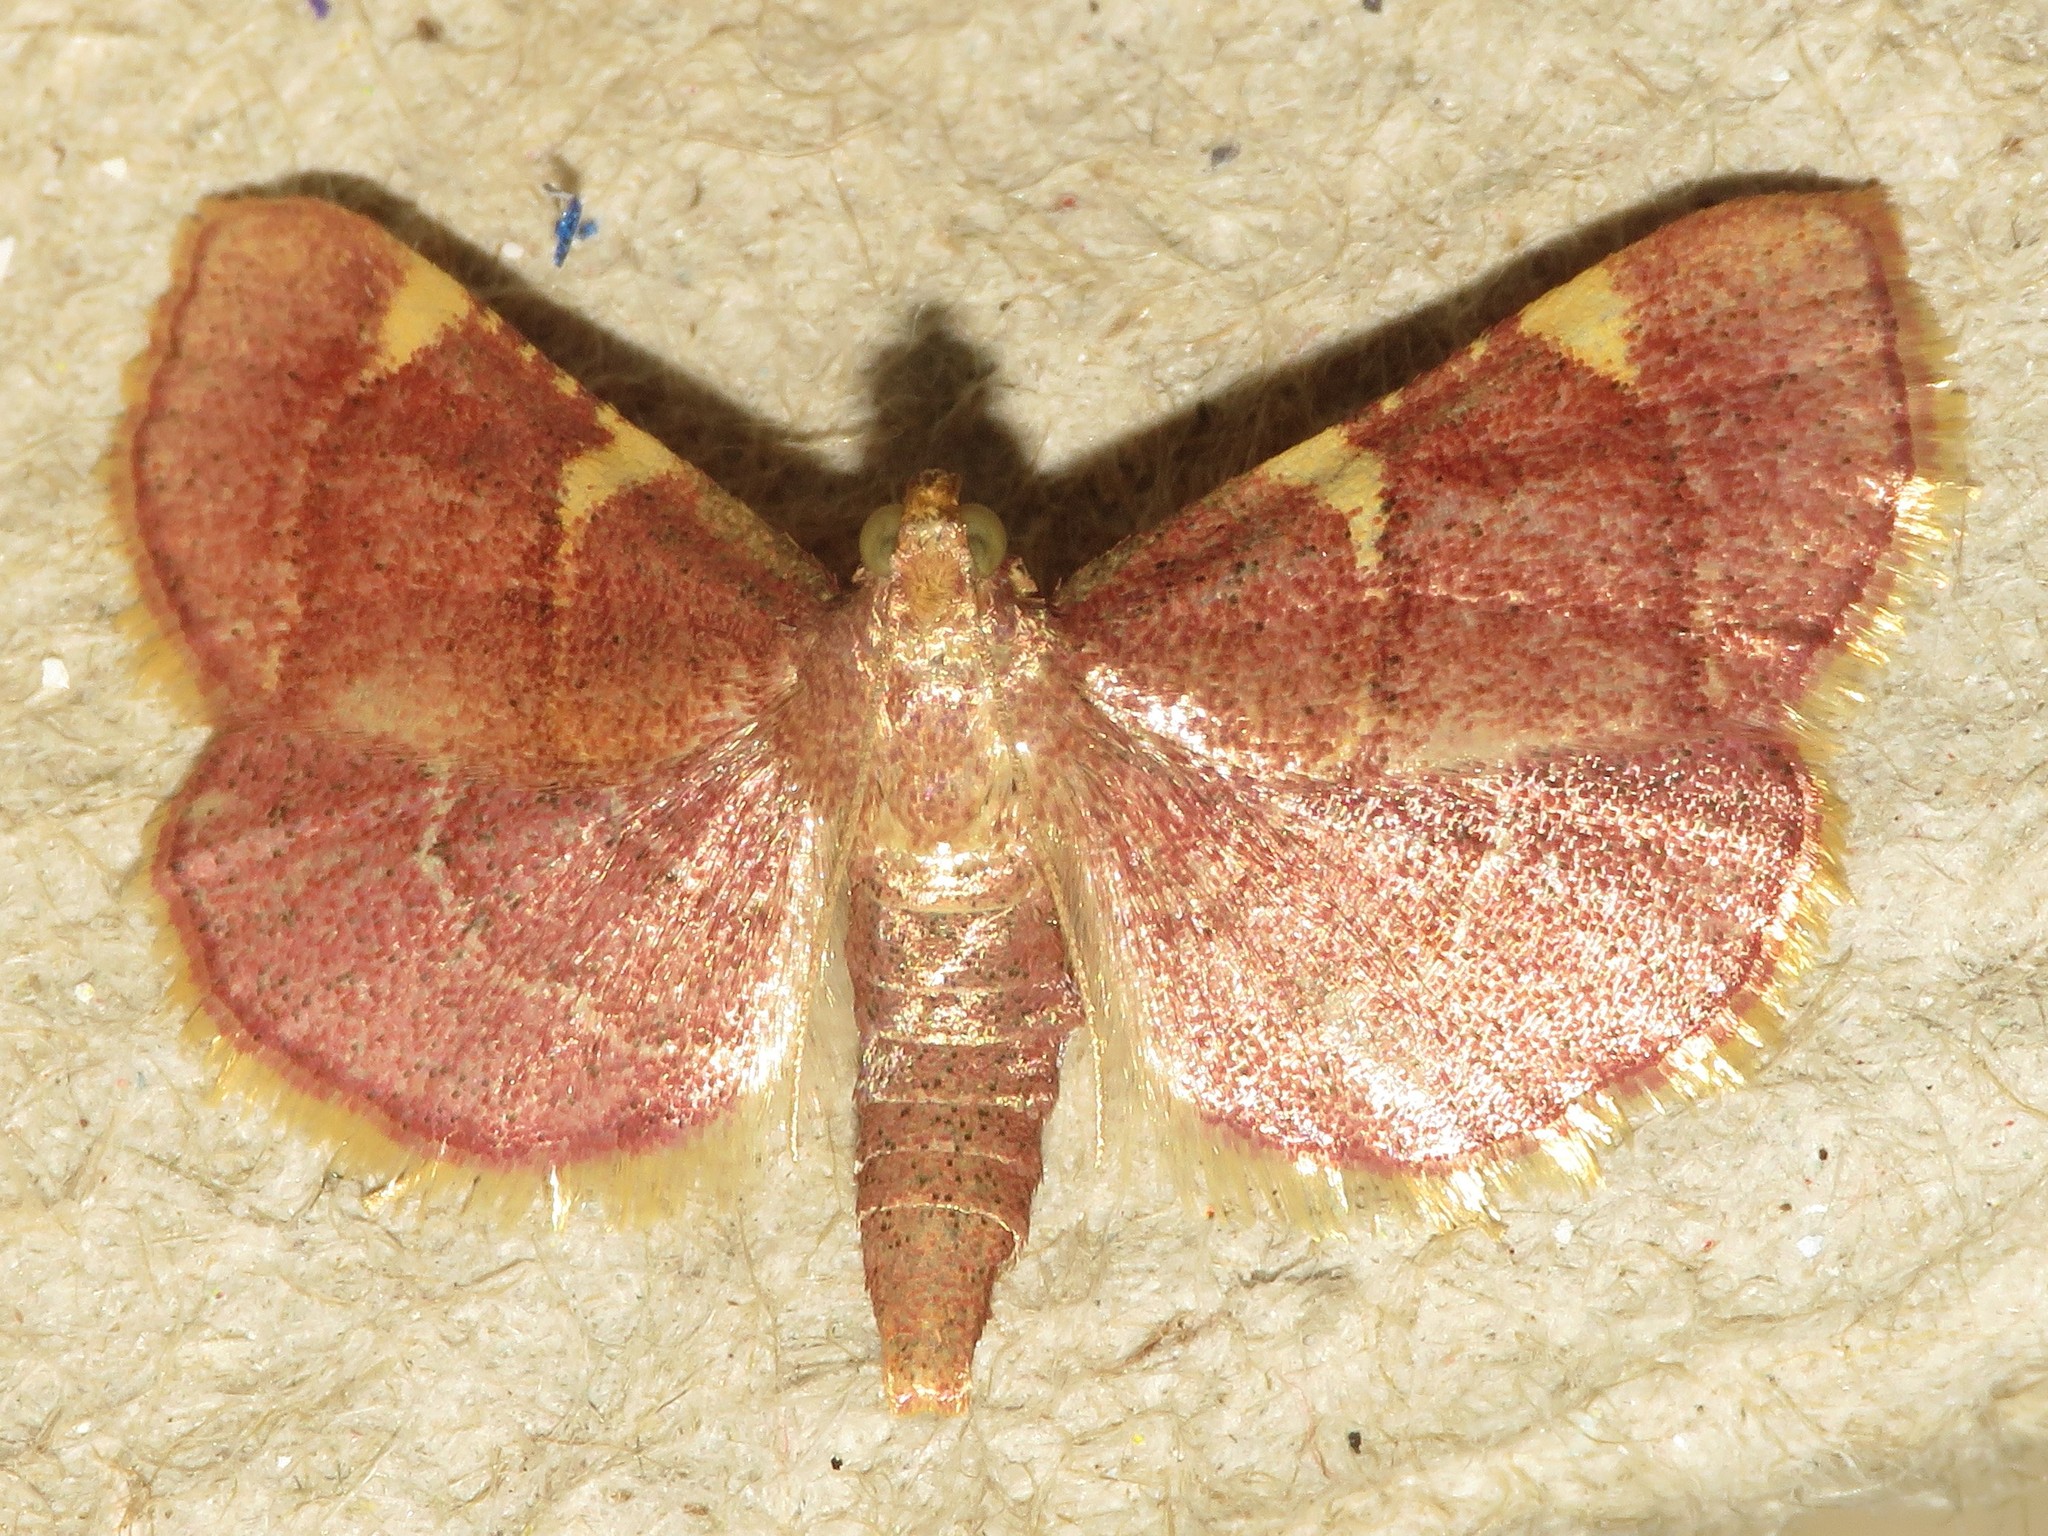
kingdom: Animalia
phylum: Arthropoda
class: Insecta
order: Lepidoptera
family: Pyralidae
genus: Hypsopygia
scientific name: Hypsopygia olinalis
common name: Yellow-fringed dolichomia moth
